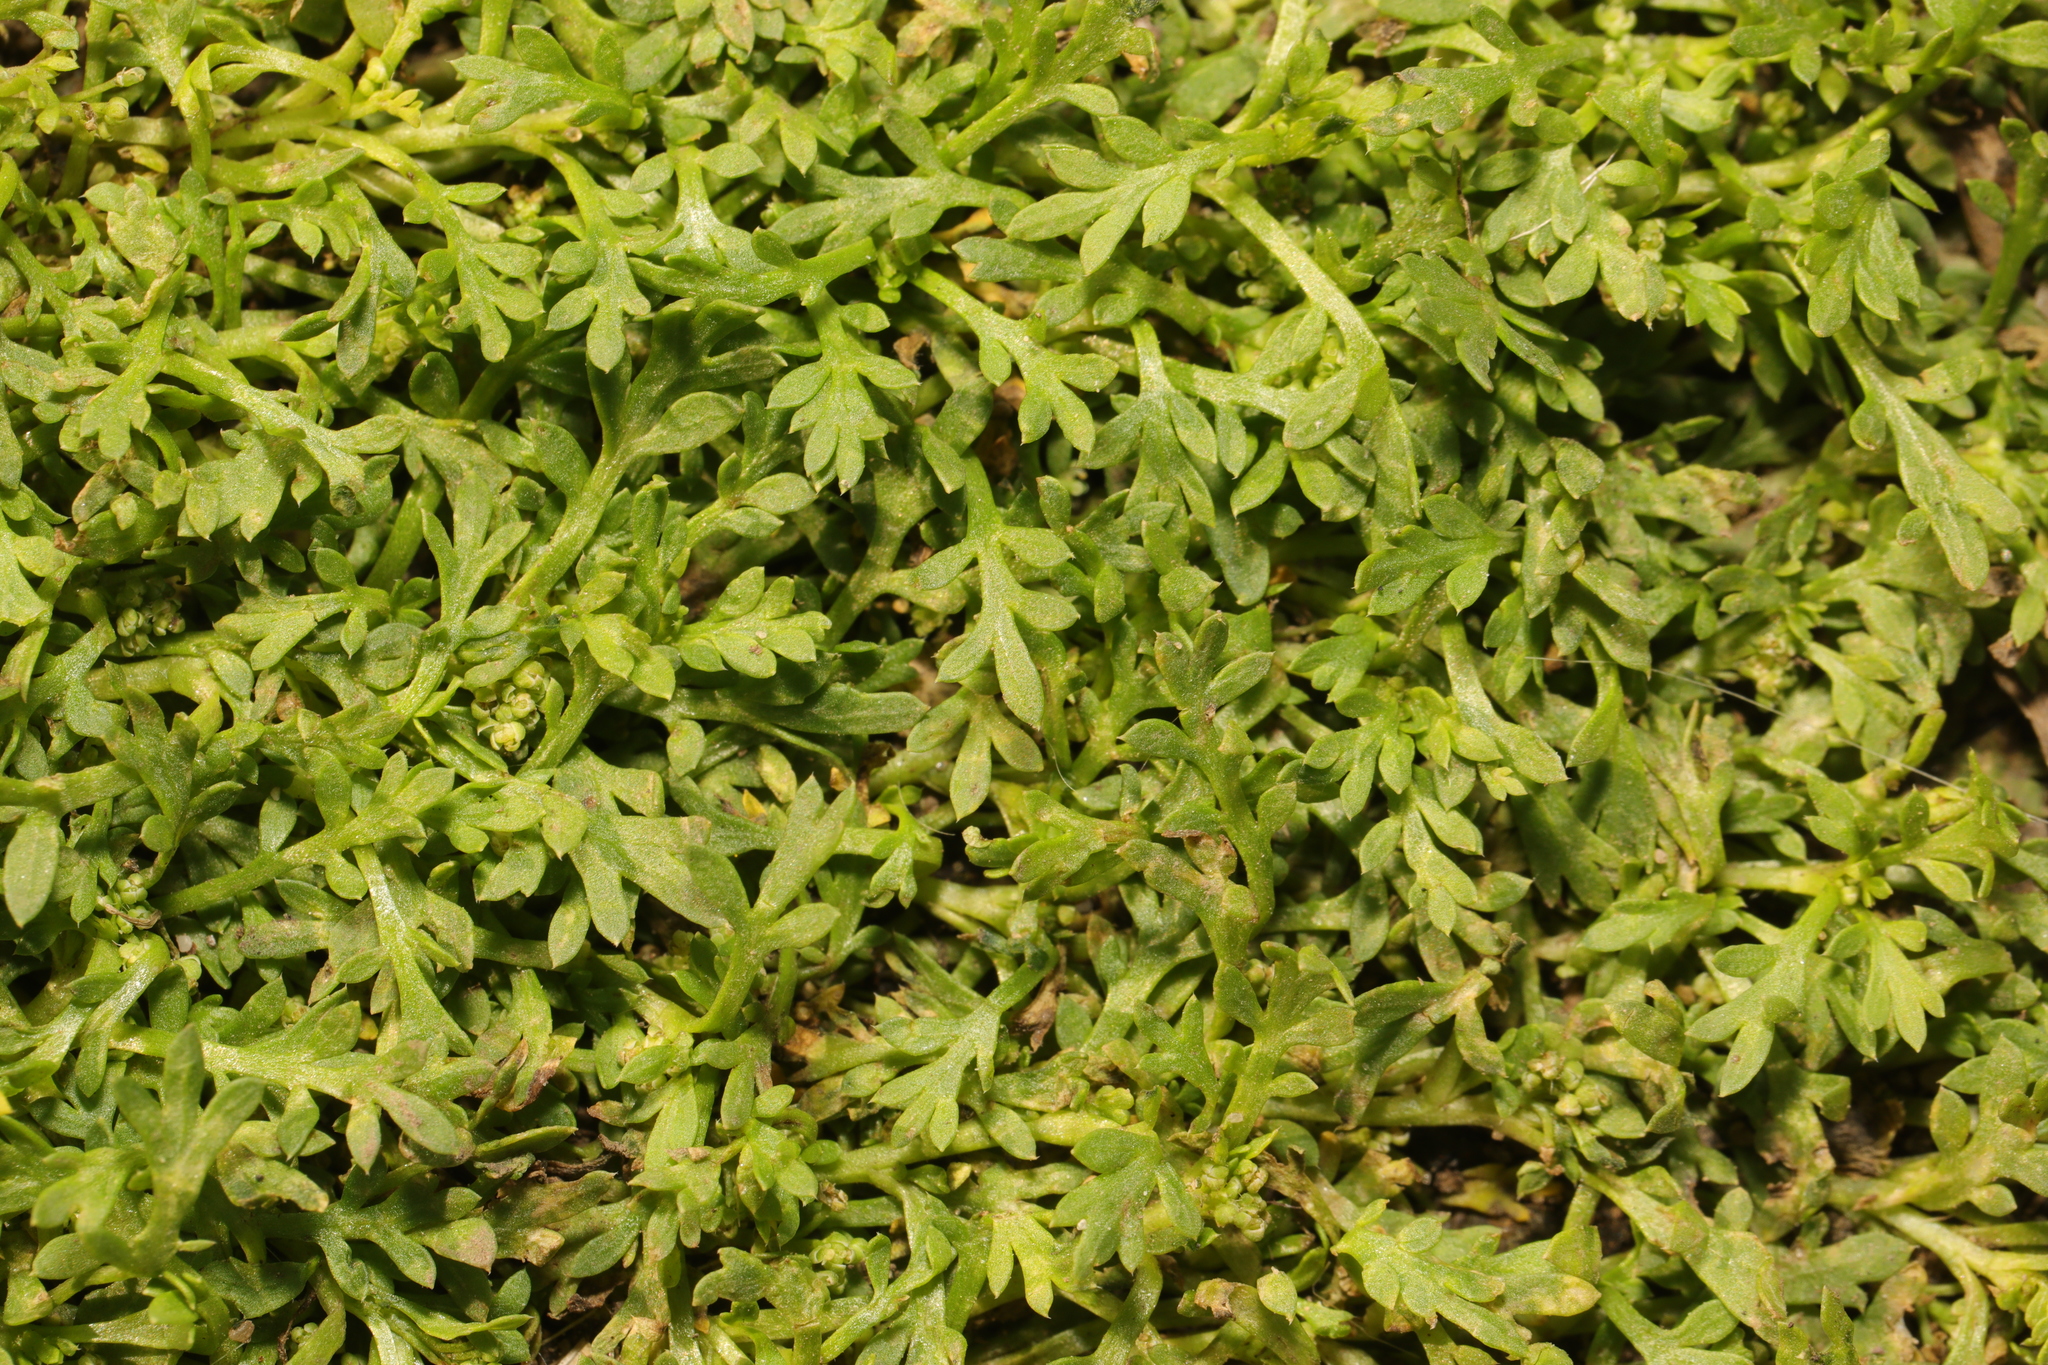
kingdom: Plantae
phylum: Tracheophyta
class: Magnoliopsida
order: Brassicales
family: Brassicaceae
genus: Lepidium
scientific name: Lepidium didymum
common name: Lesser swinecress
